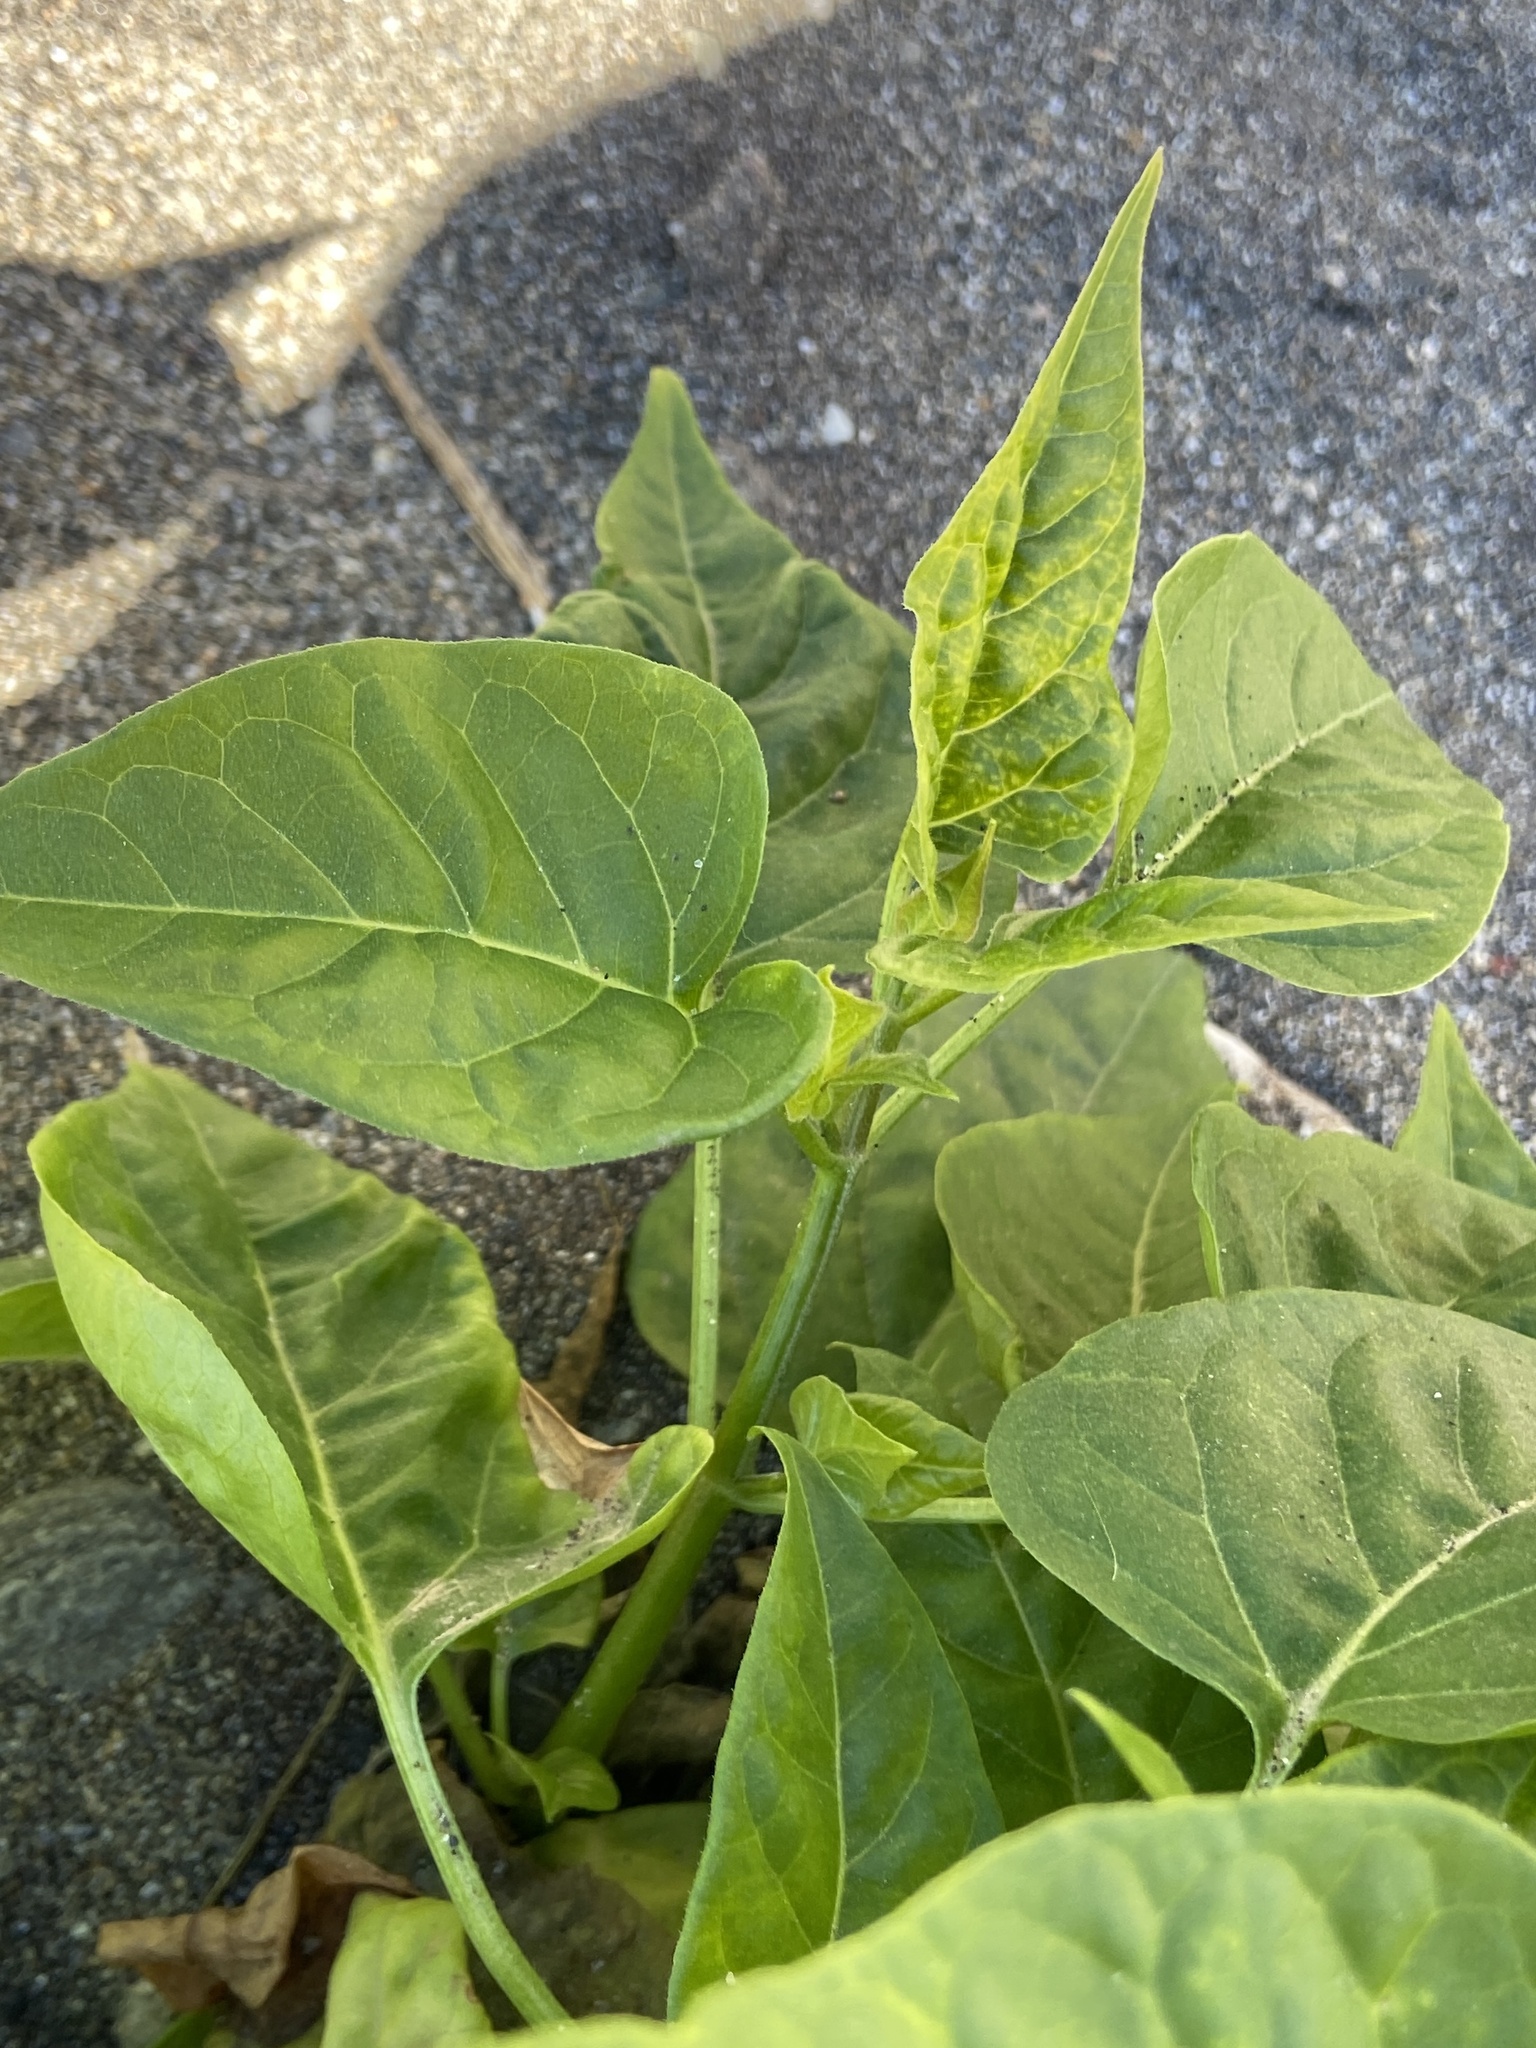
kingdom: Plantae
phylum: Tracheophyta
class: Magnoliopsida
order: Caryophyllales
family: Nyctaginaceae
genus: Mirabilis
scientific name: Mirabilis jalapa
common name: Marvel-of-peru
